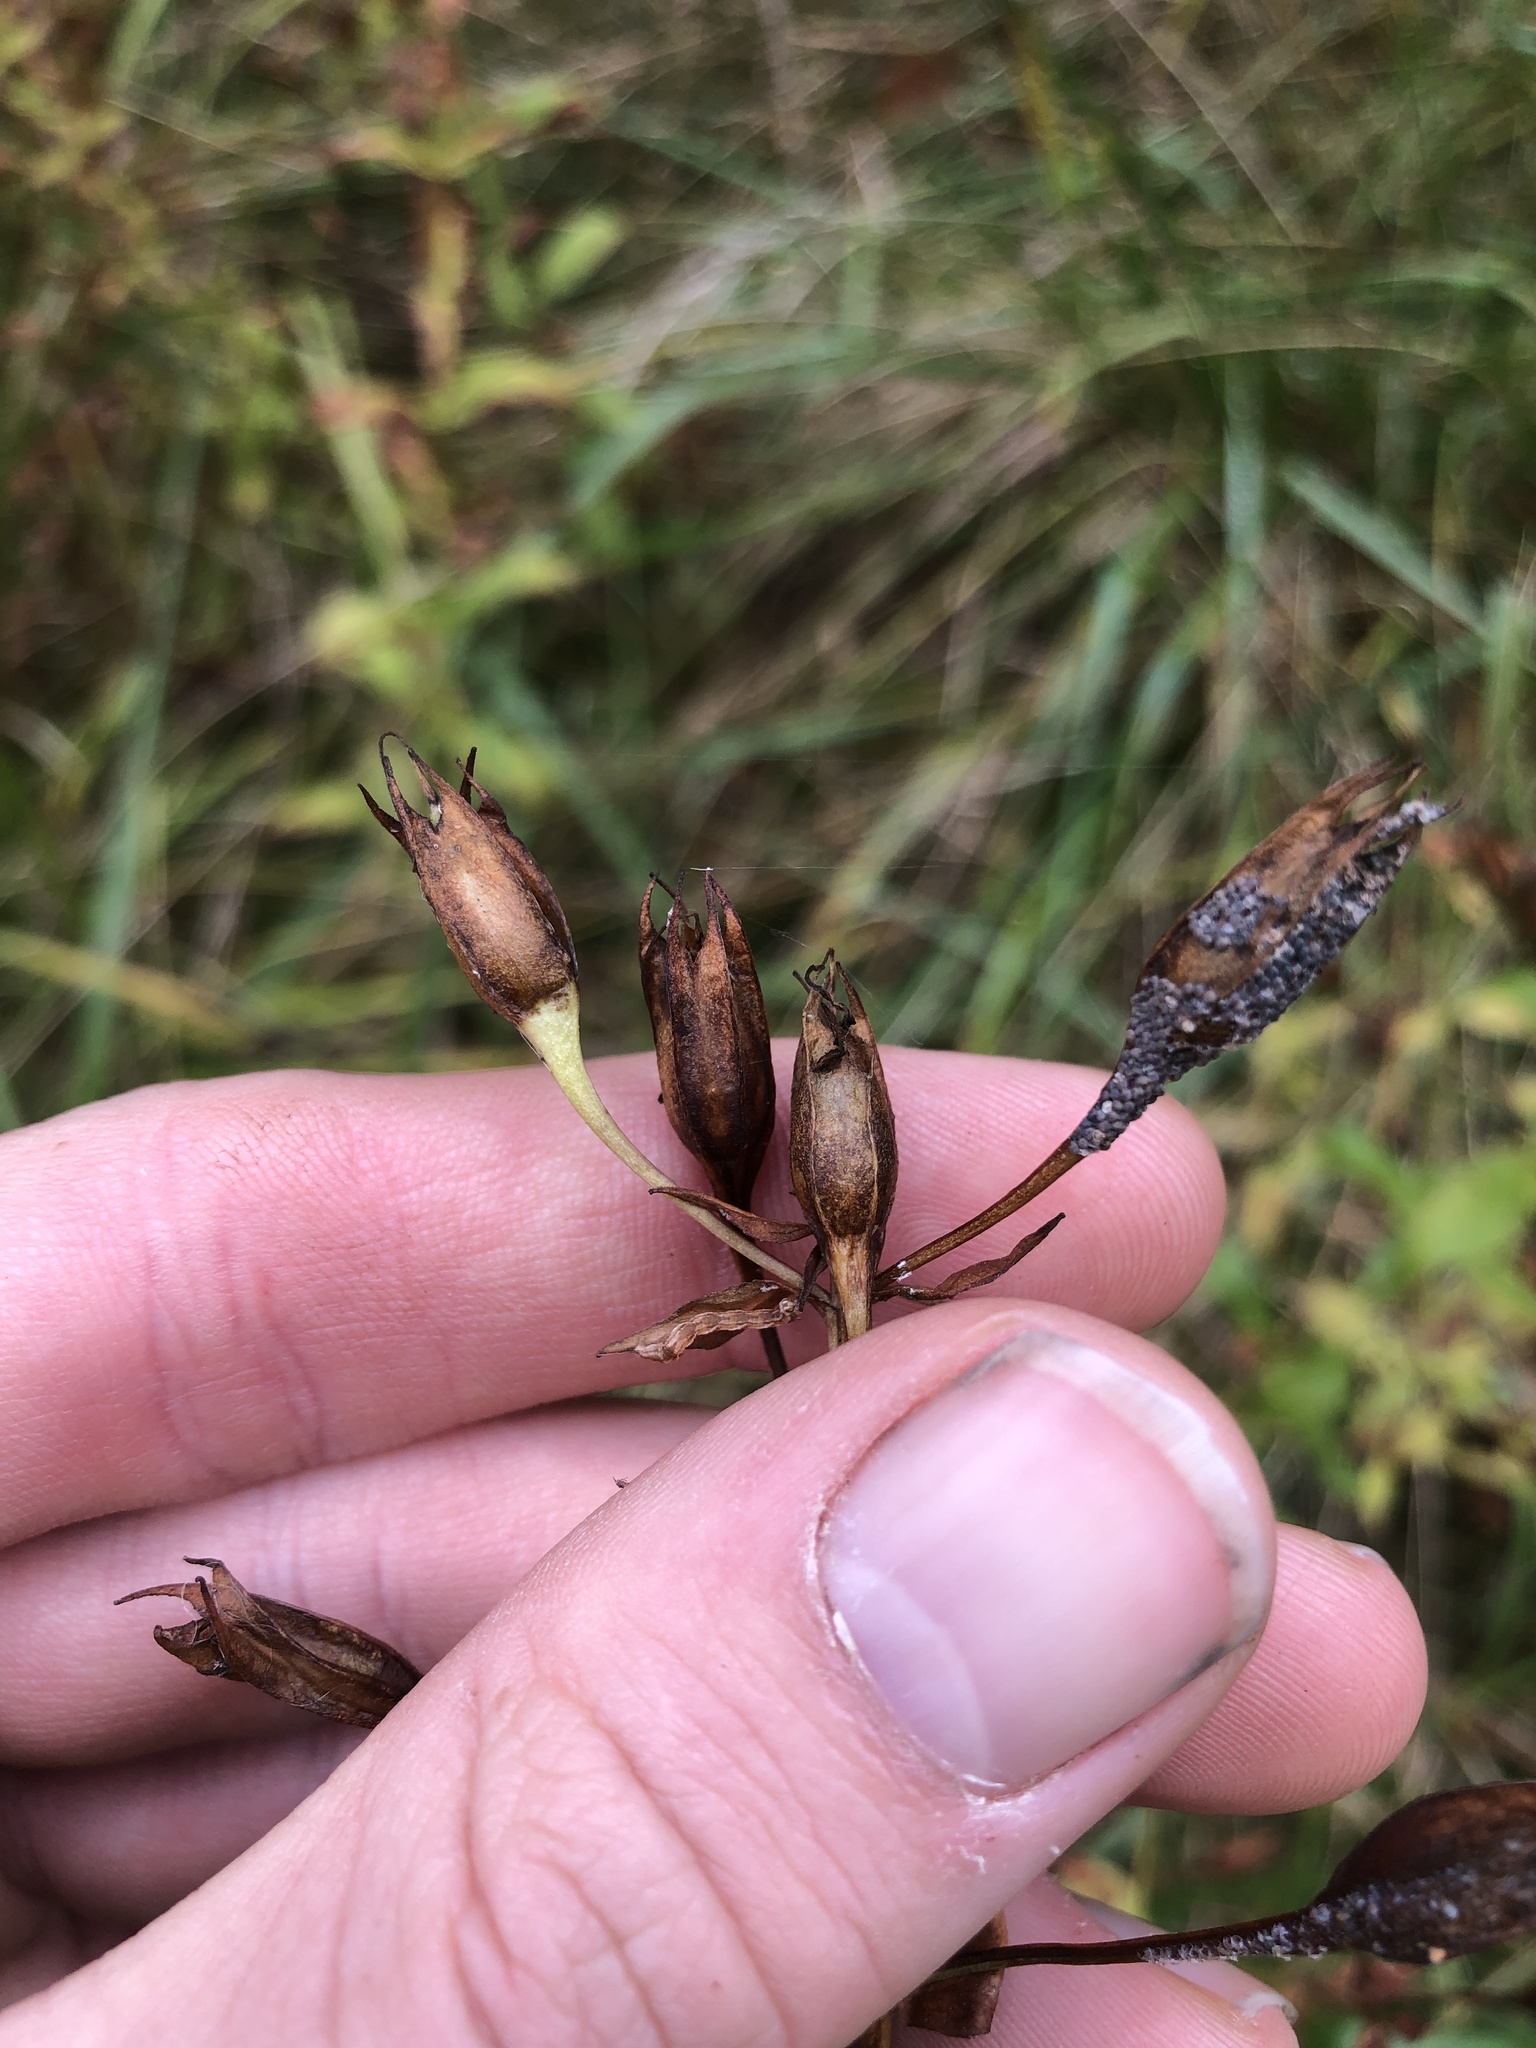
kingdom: Plantae
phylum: Tracheophyta
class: Magnoliopsida
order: Lamiales
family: Phrymaceae
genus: Mimulus
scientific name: Mimulus ringens
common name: Allegheny monkeyflower
